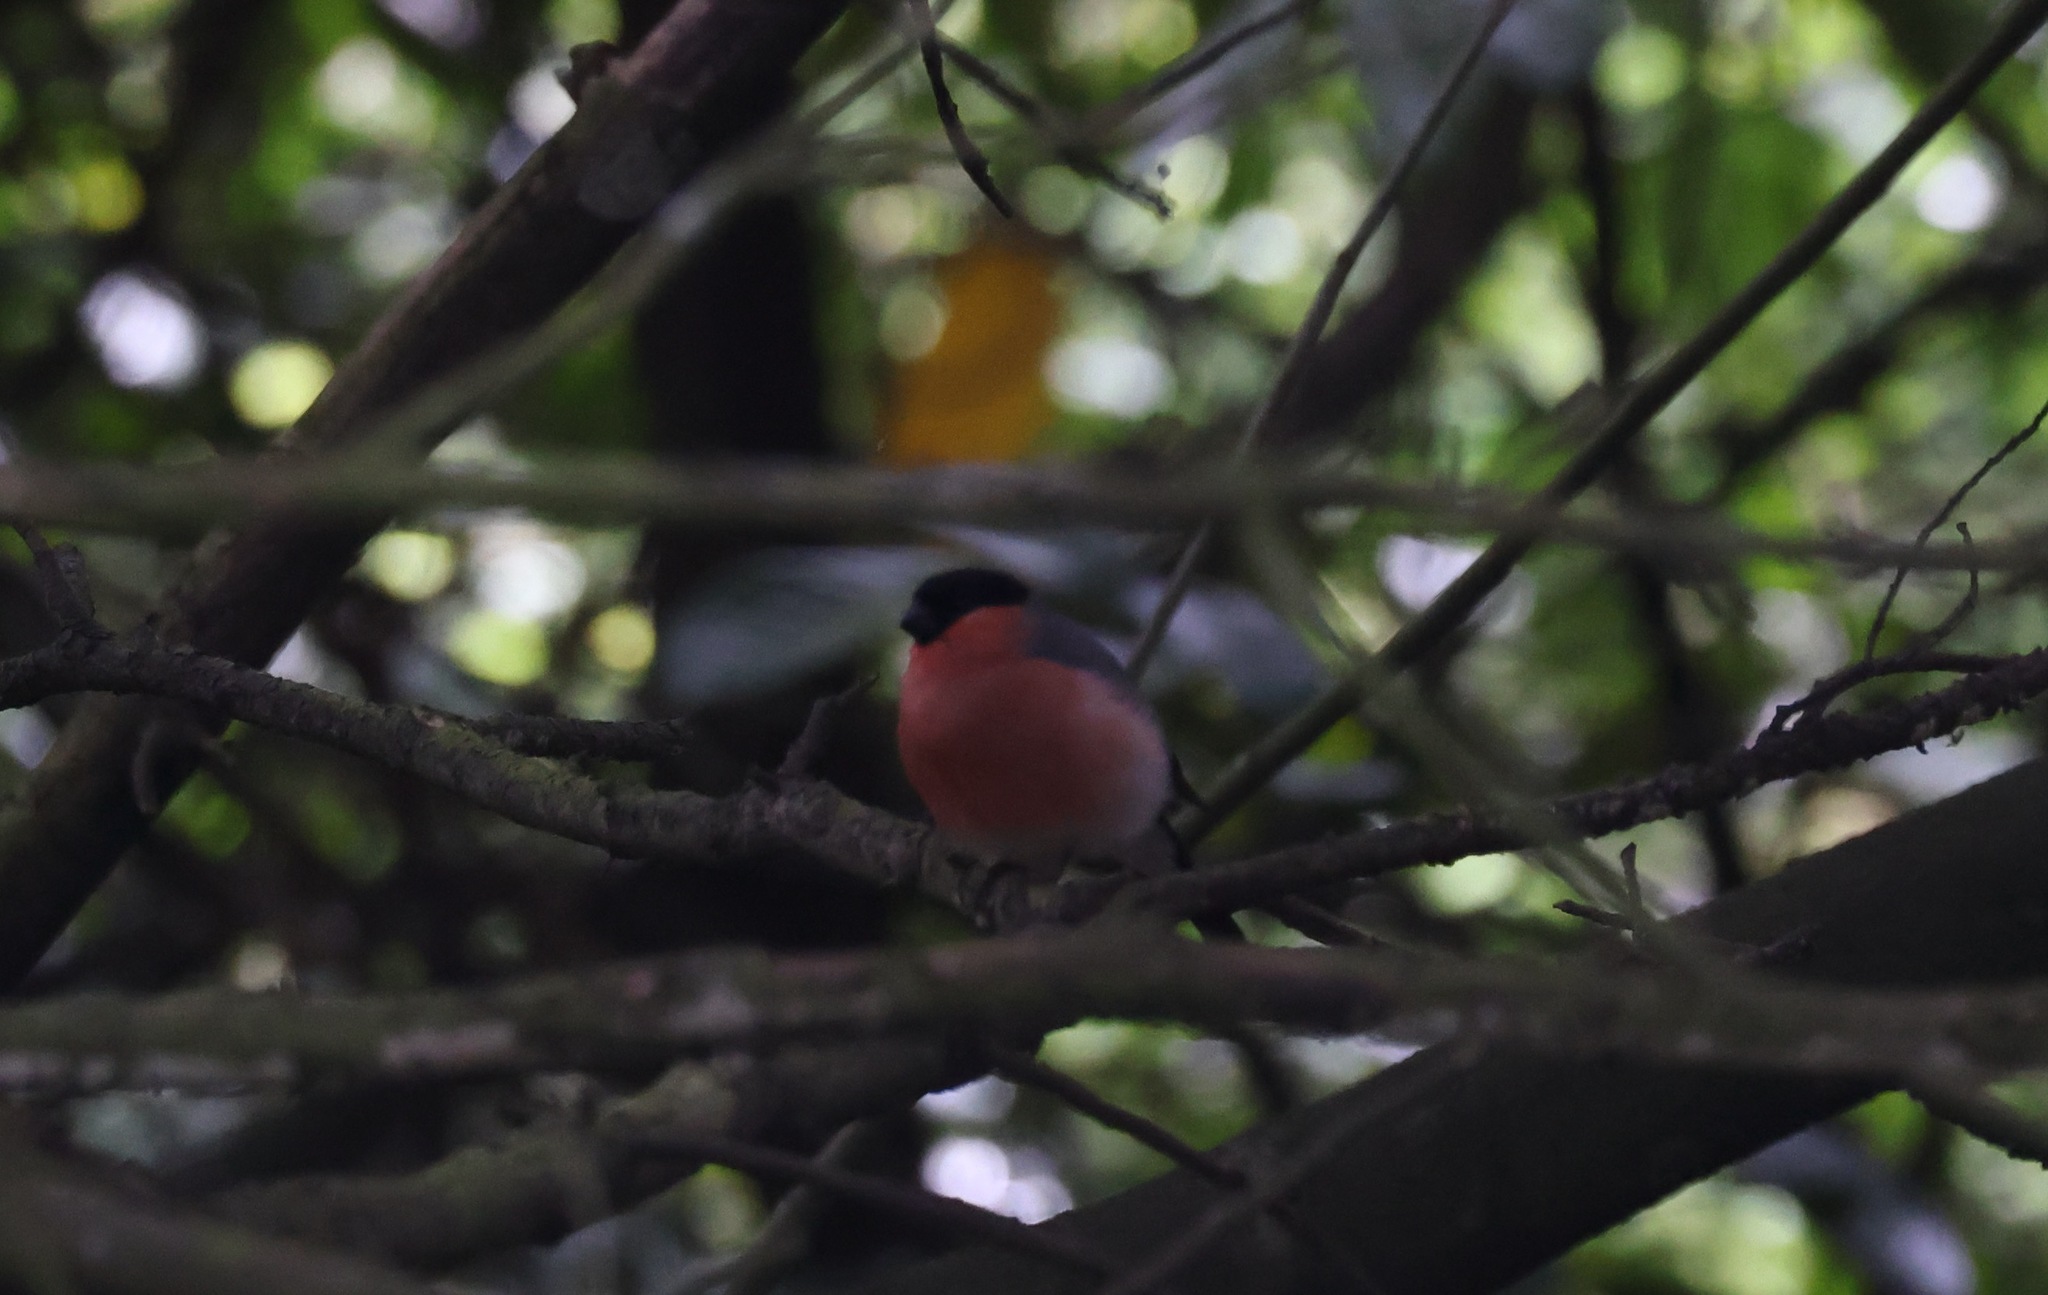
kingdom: Animalia
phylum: Chordata
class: Aves
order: Passeriformes
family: Fringillidae
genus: Pyrrhula
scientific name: Pyrrhula pyrrhula
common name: Eurasian bullfinch
